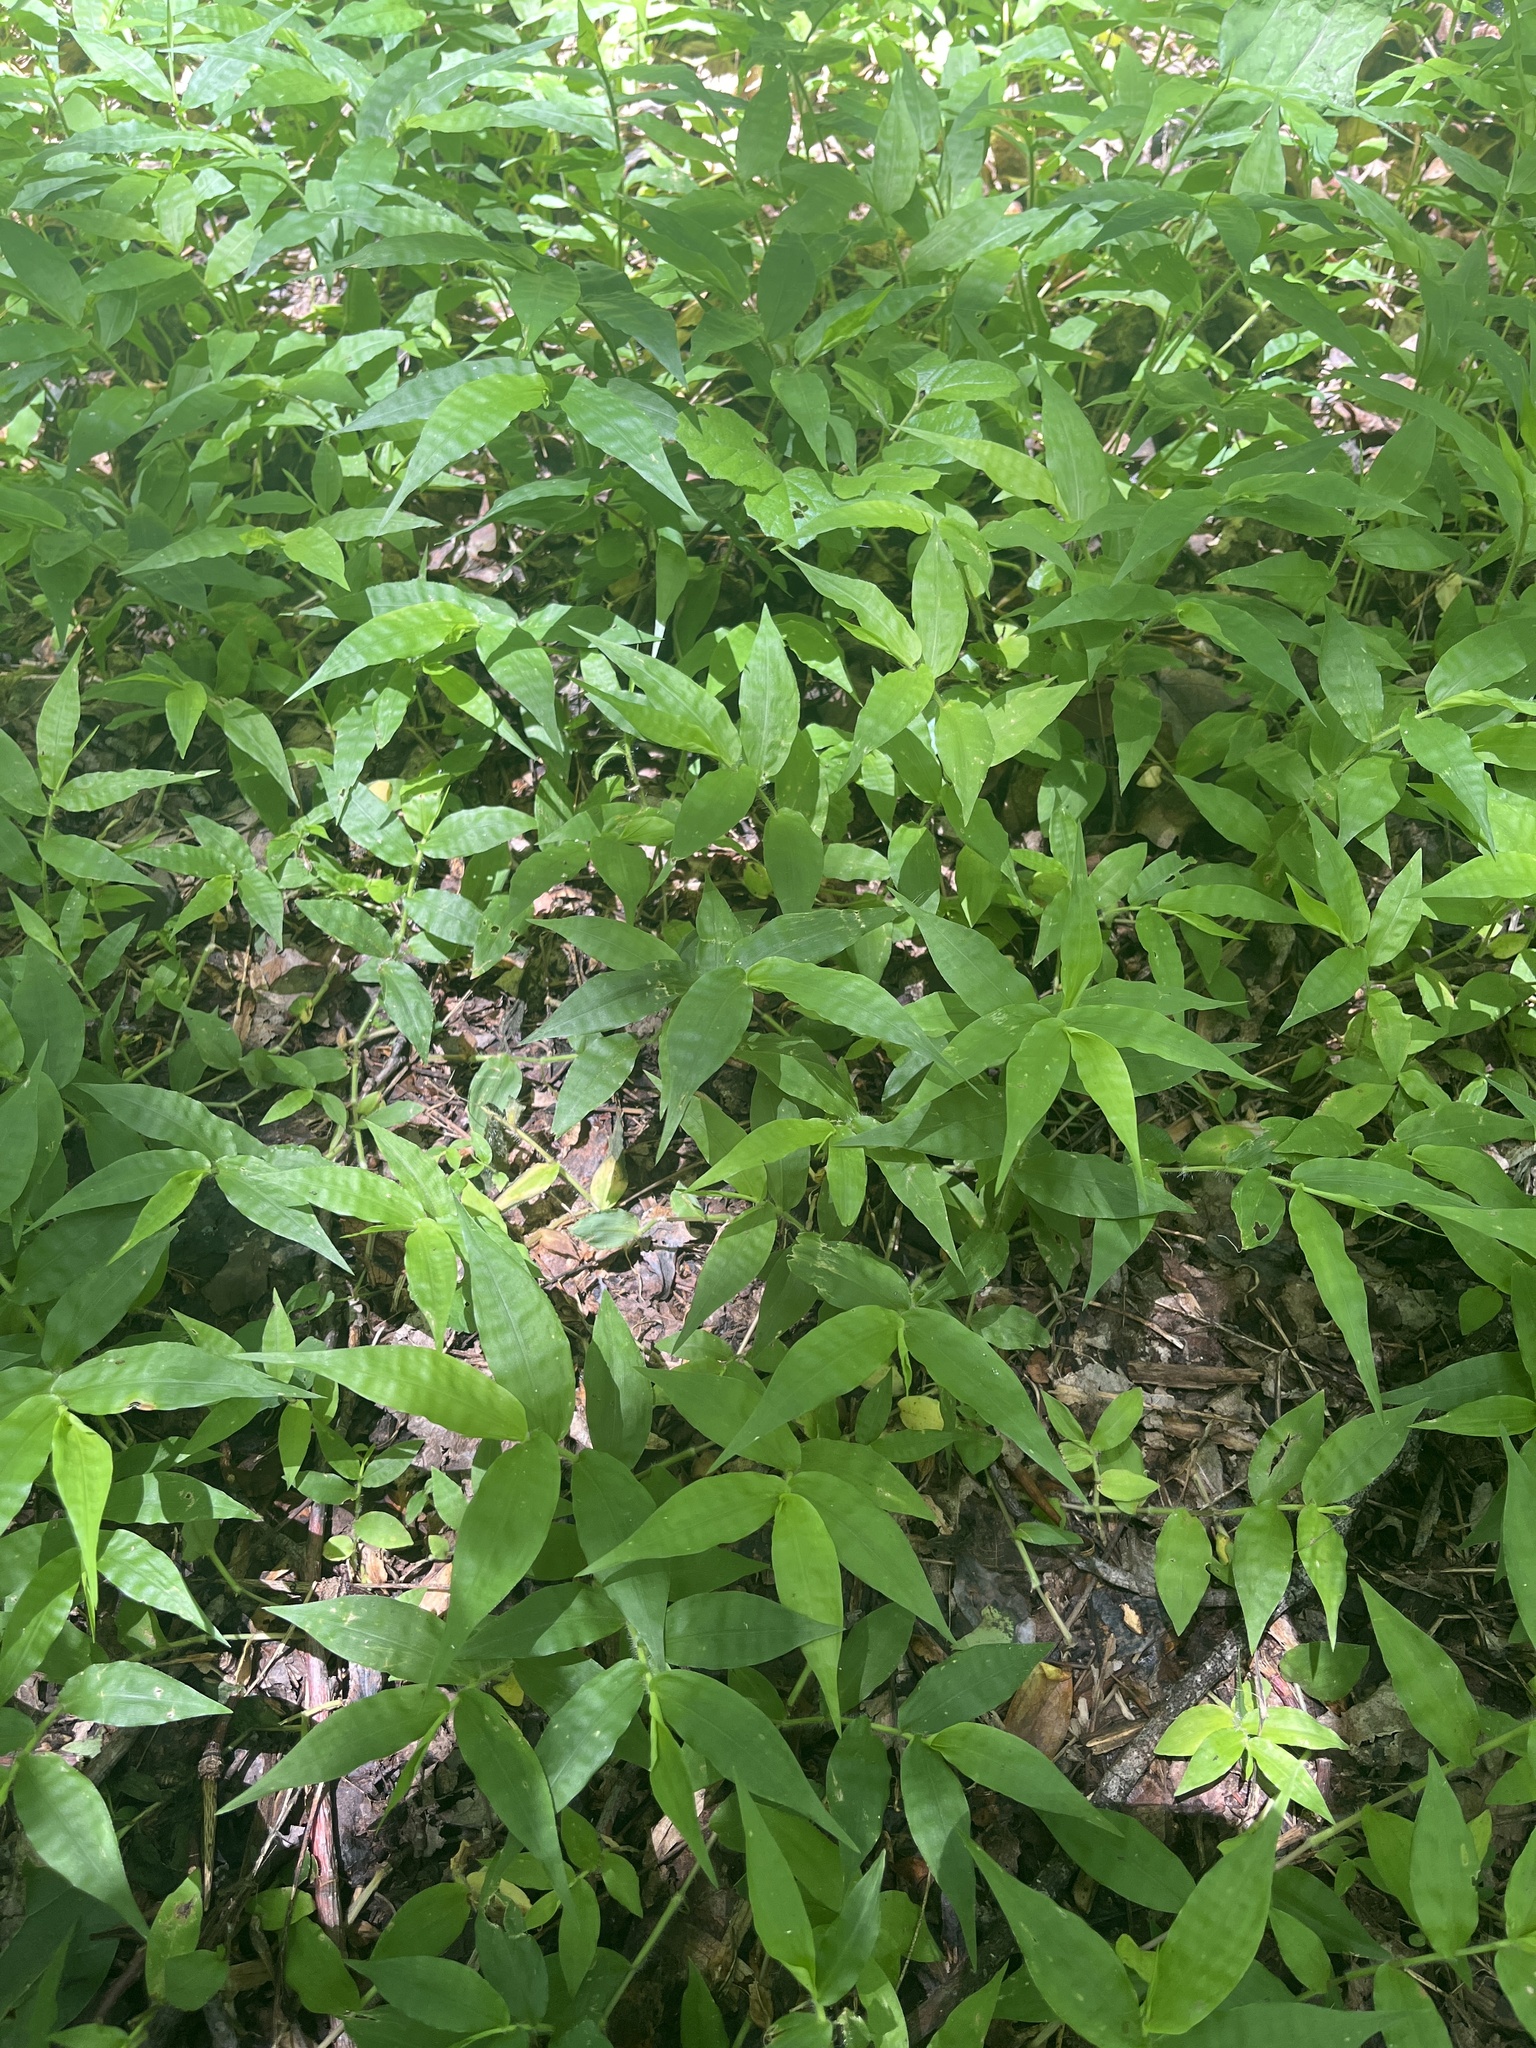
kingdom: Plantae
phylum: Tracheophyta
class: Liliopsida
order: Poales
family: Poaceae
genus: Oplismenus
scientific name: Oplismenus undulatifolius
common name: Wavyleaf basketgrass
